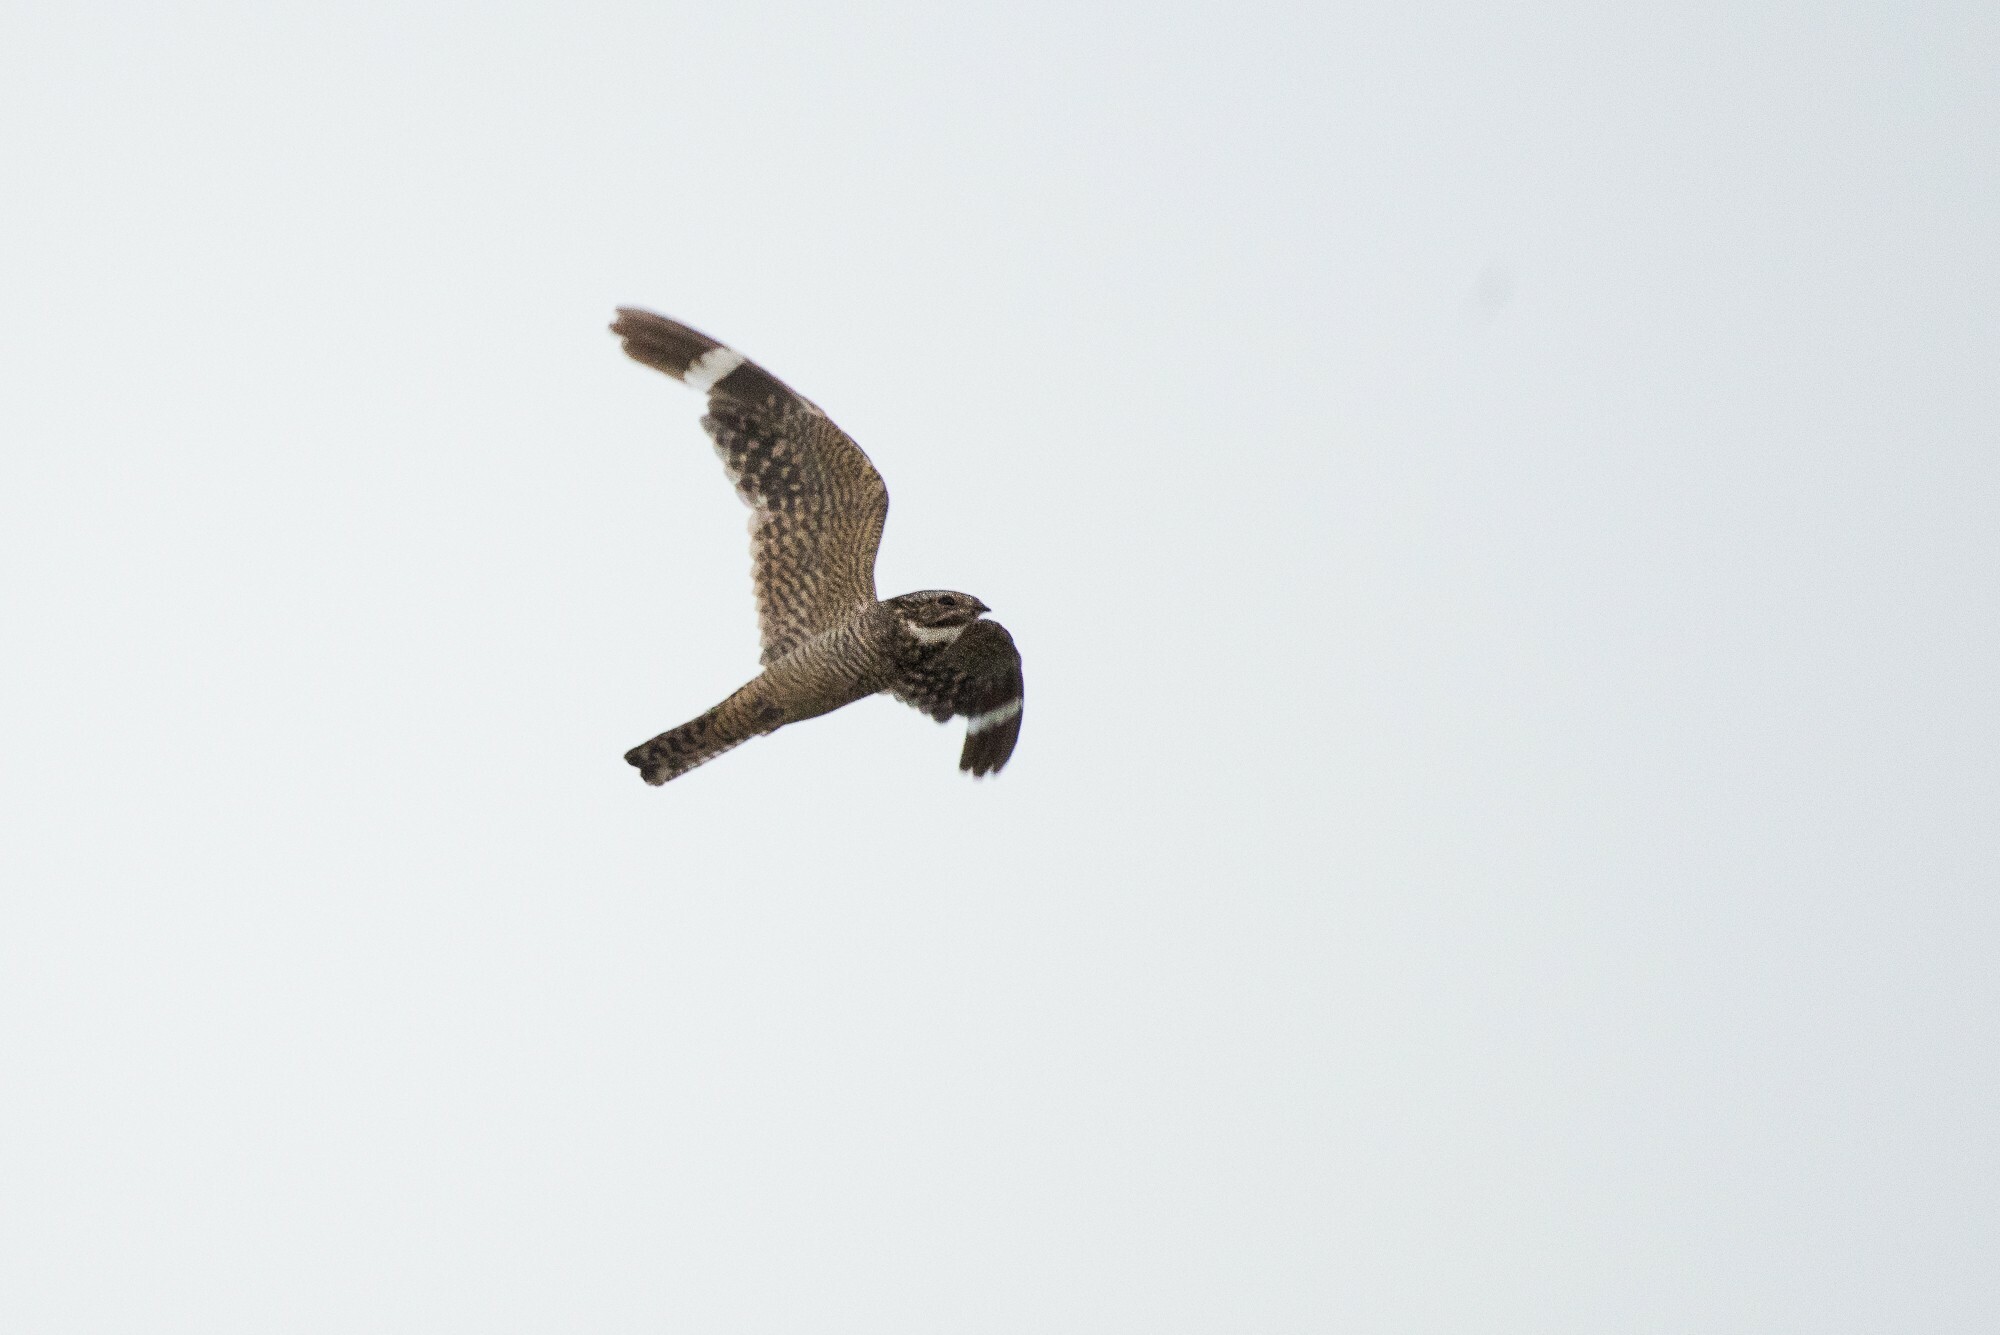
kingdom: Animalia
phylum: Chordata
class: Aves
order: Caprimulgiformes
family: Caprimulgidae
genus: Chordeiles
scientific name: Chordeiles acutipennis
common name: Lesser nighthawk
